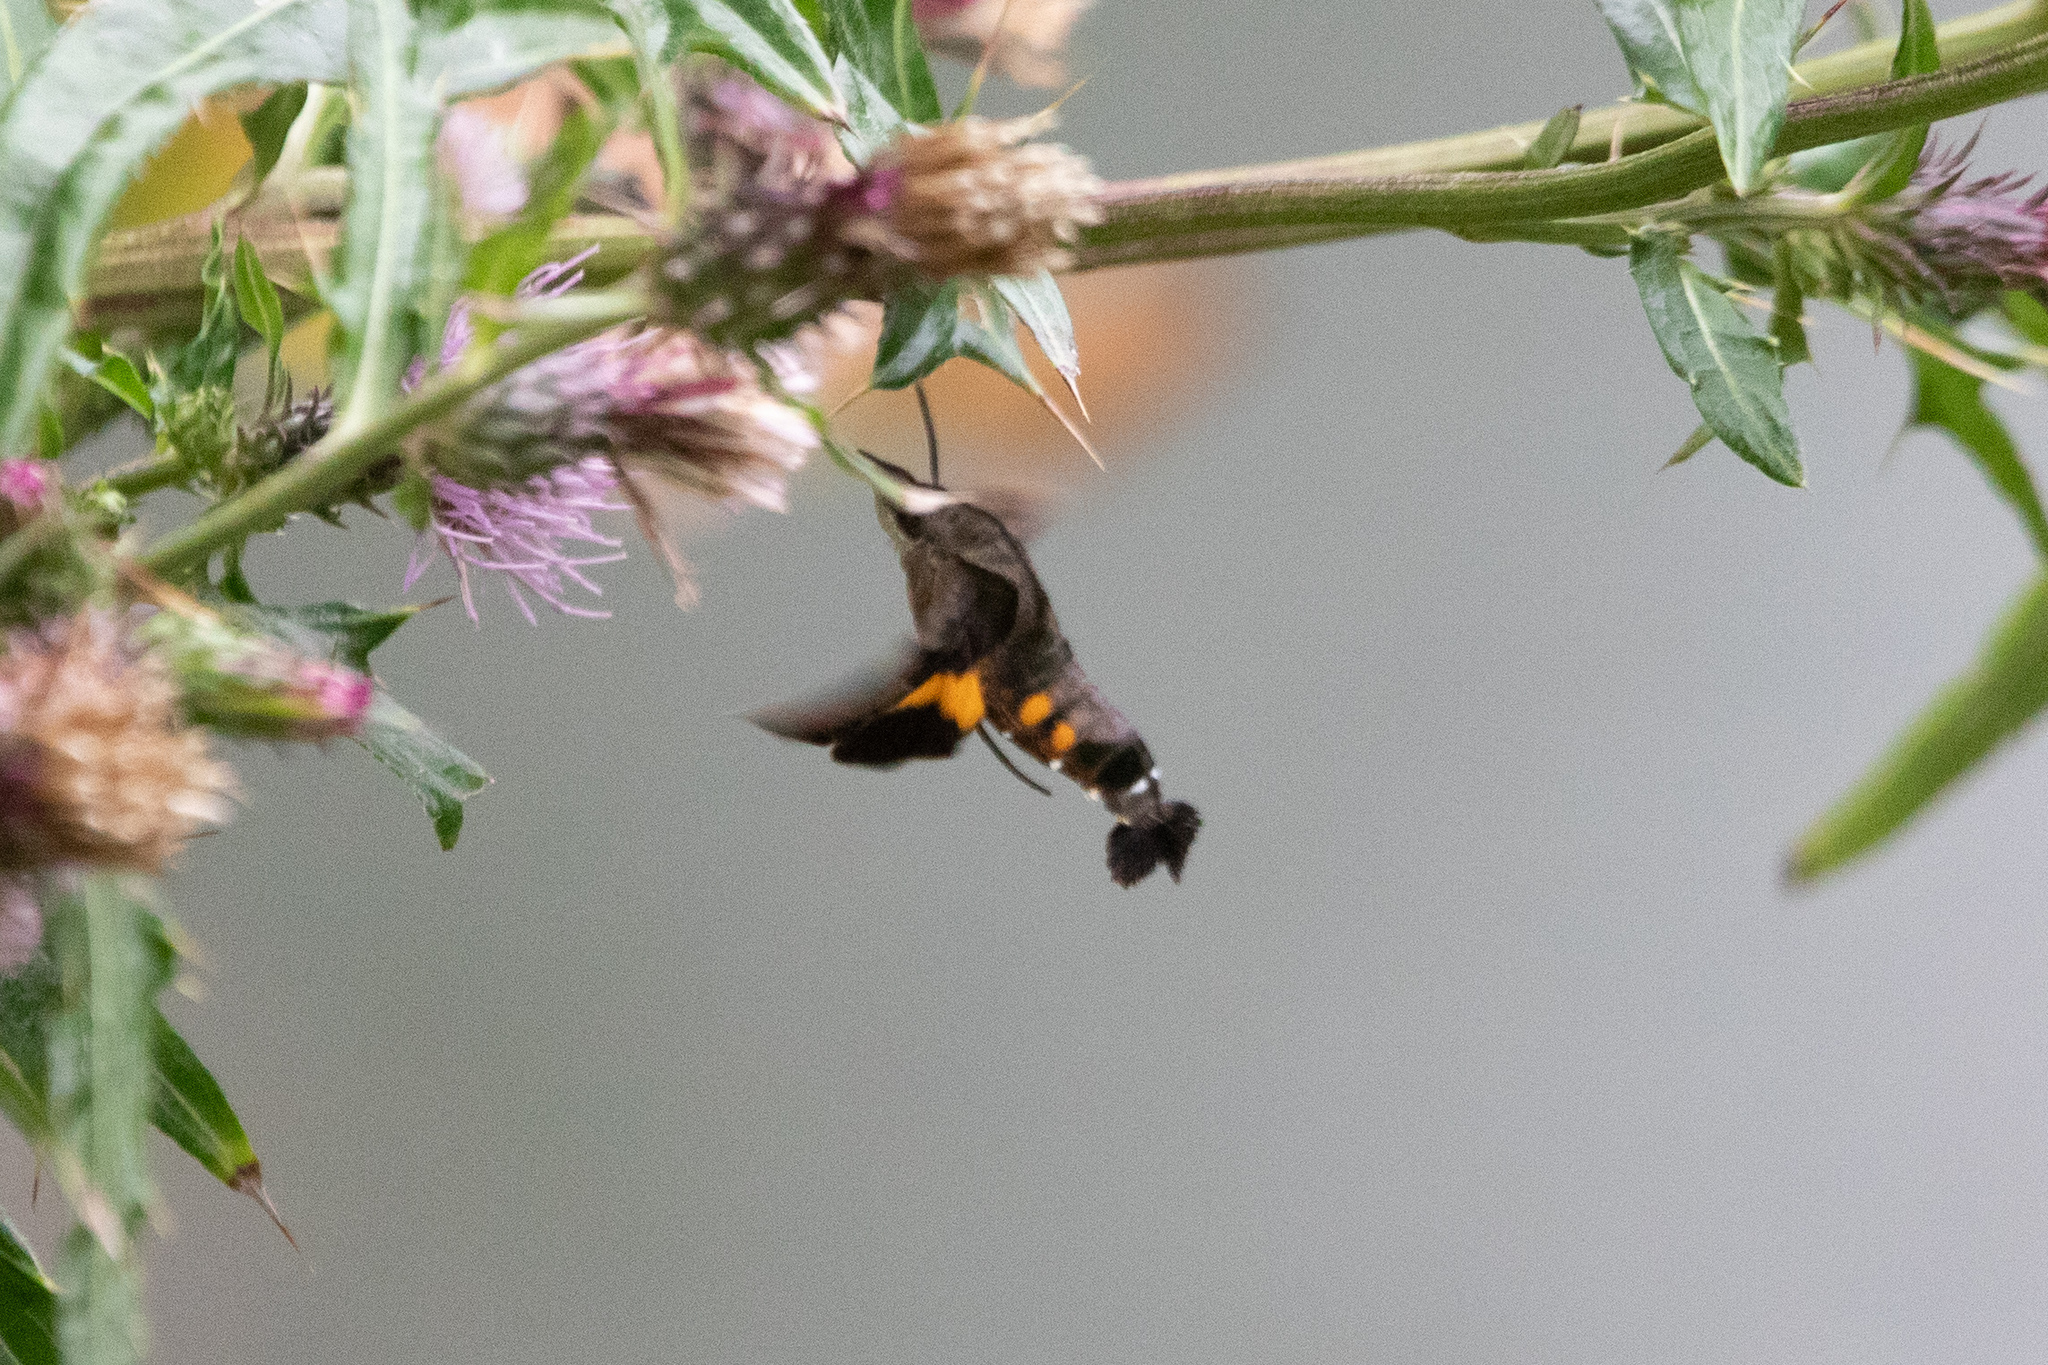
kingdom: Animalia
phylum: Arthropoda
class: Insecta
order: Lepidoptera
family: Sphingidae
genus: Macroglossum
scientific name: Macroglossum pyrrhosticta
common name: Hummingbird hawk moth
